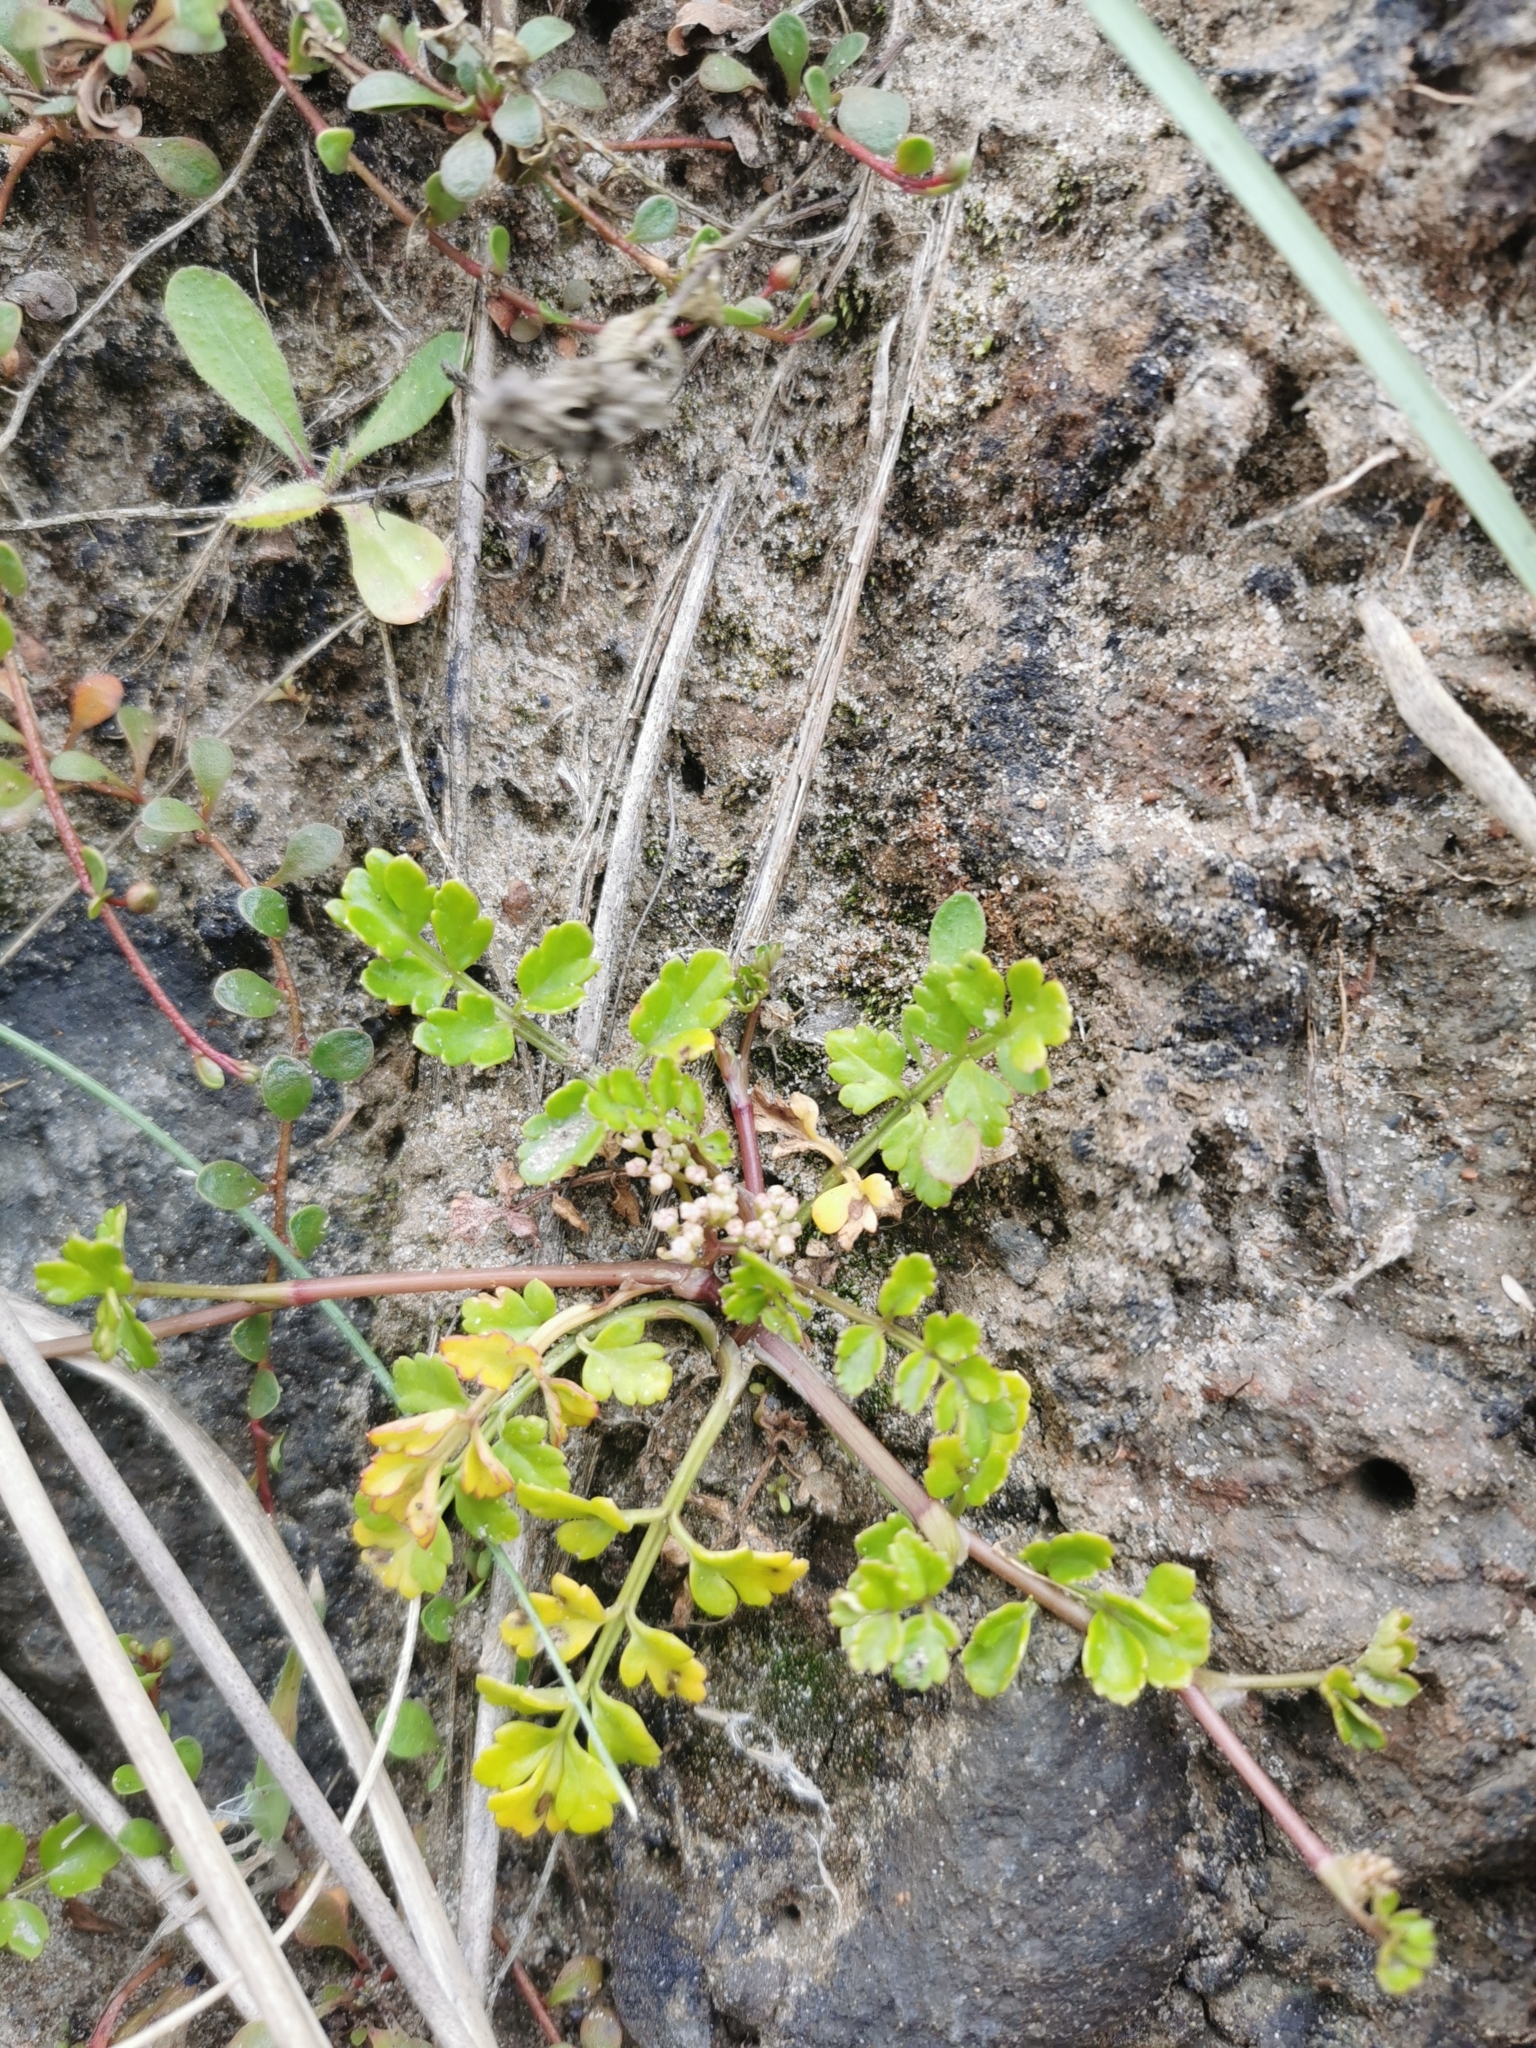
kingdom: Plantae
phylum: Tracheophyta
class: Magnoliopsida
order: Apiales
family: Apiaceae
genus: Apium
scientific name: Apium prostratum
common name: Prostrate marshwort
